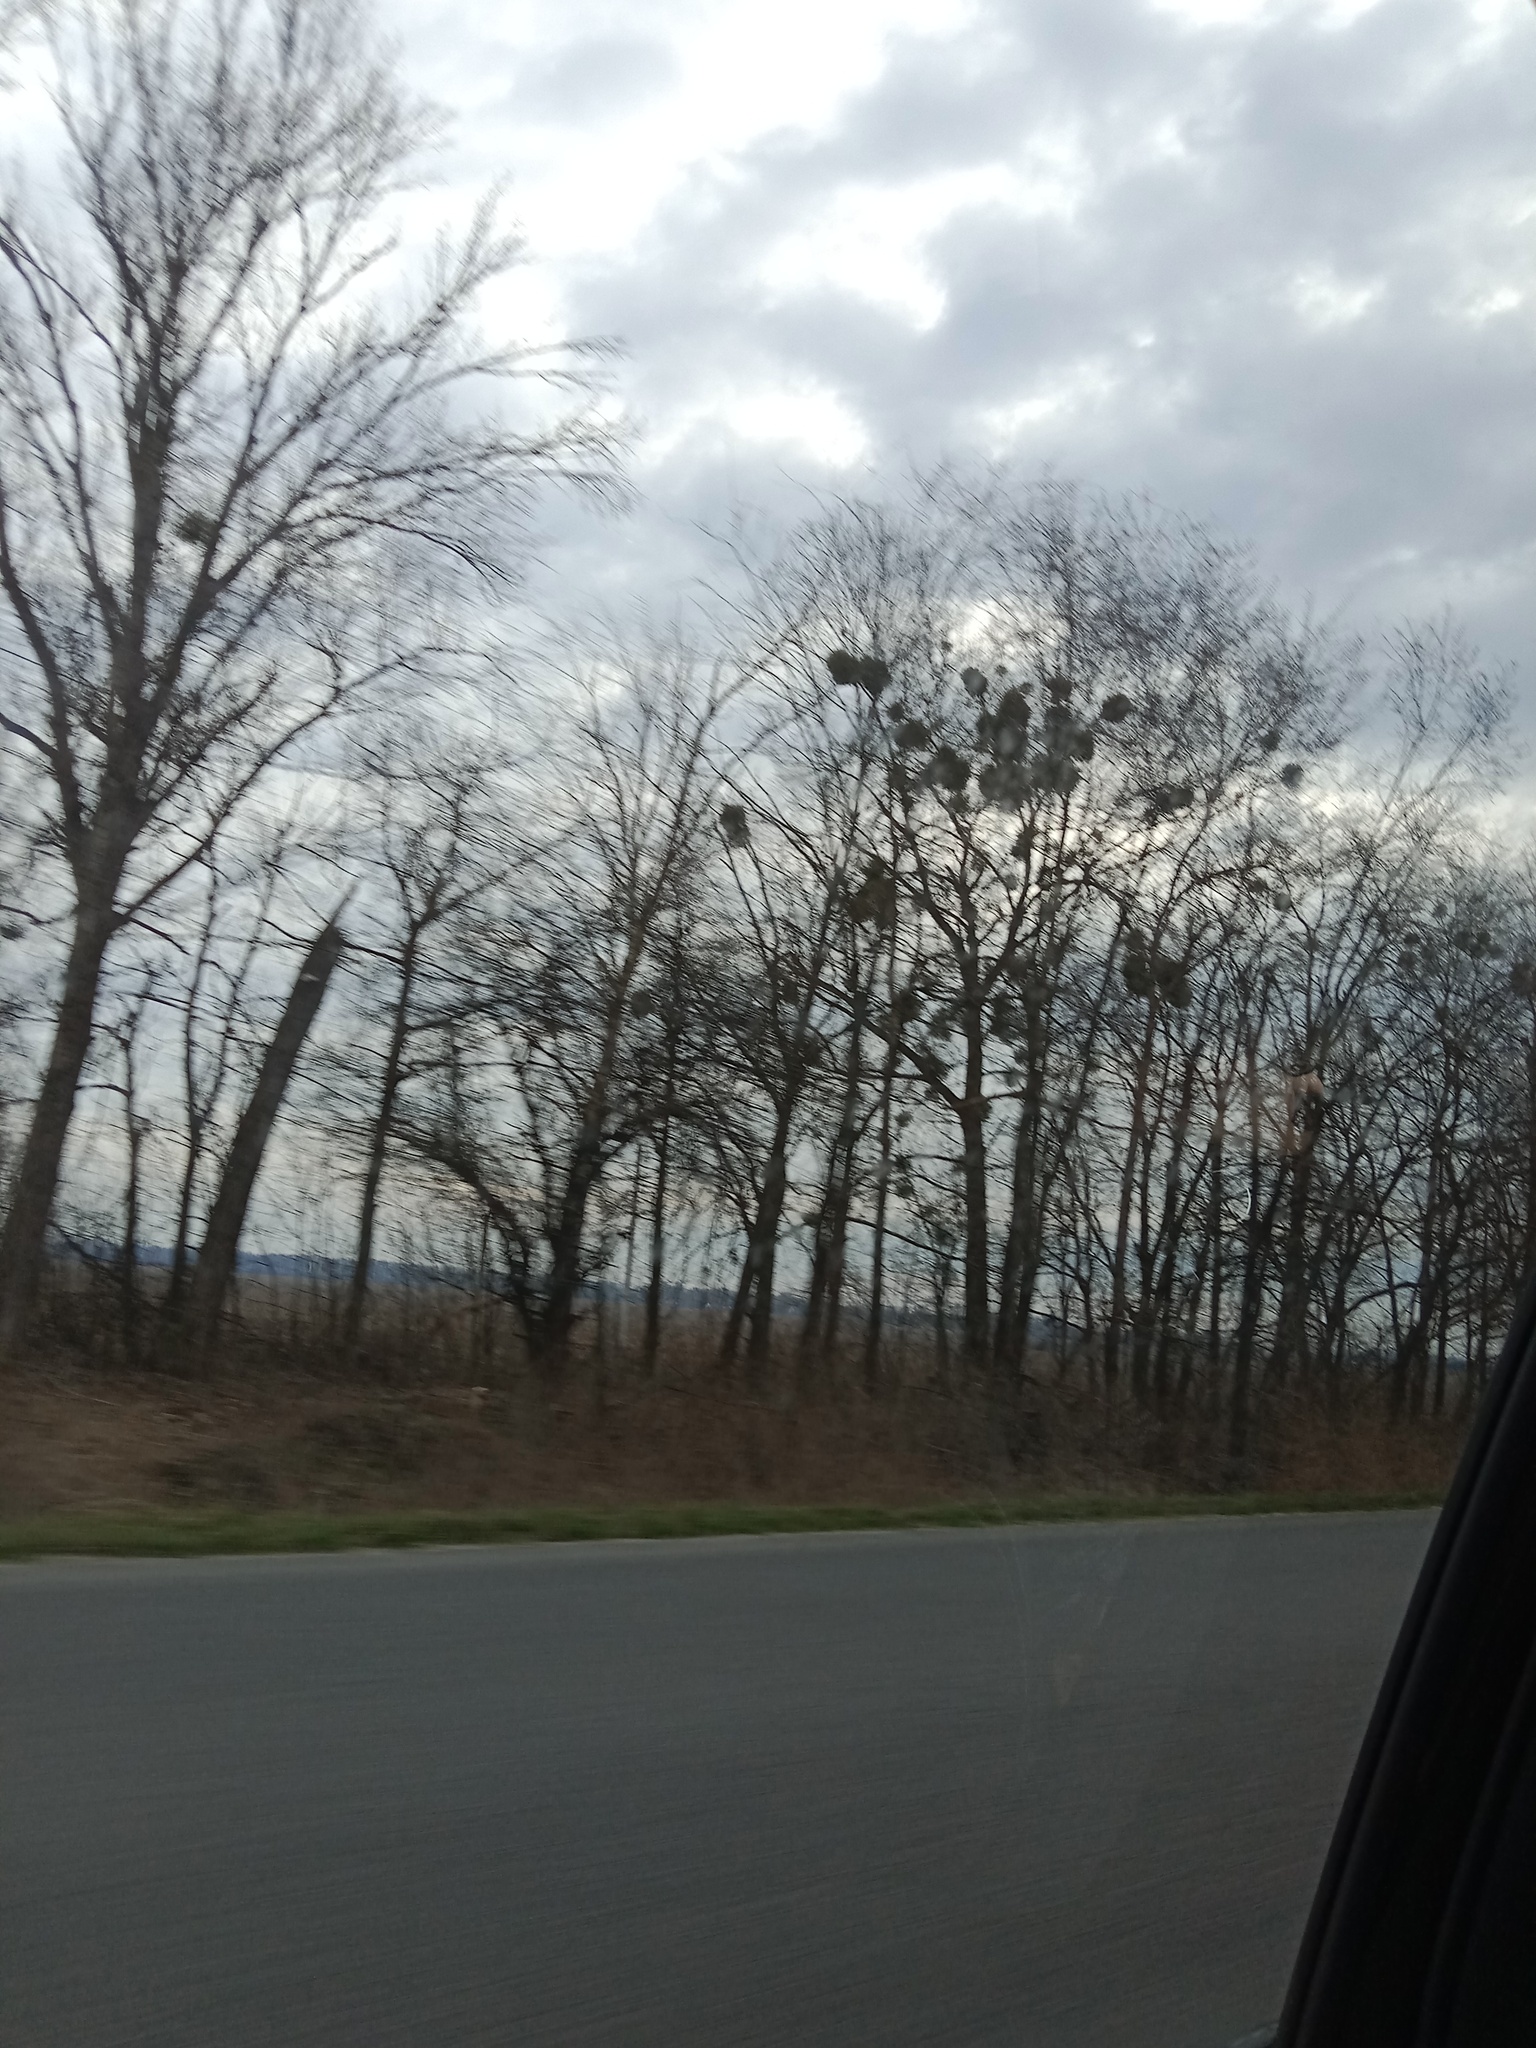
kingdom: Plantae
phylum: Tracheophyta
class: Magnoliopsida
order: Santalales
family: Viscaceae
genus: Viscum
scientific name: Viscum album
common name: Mistletoe
